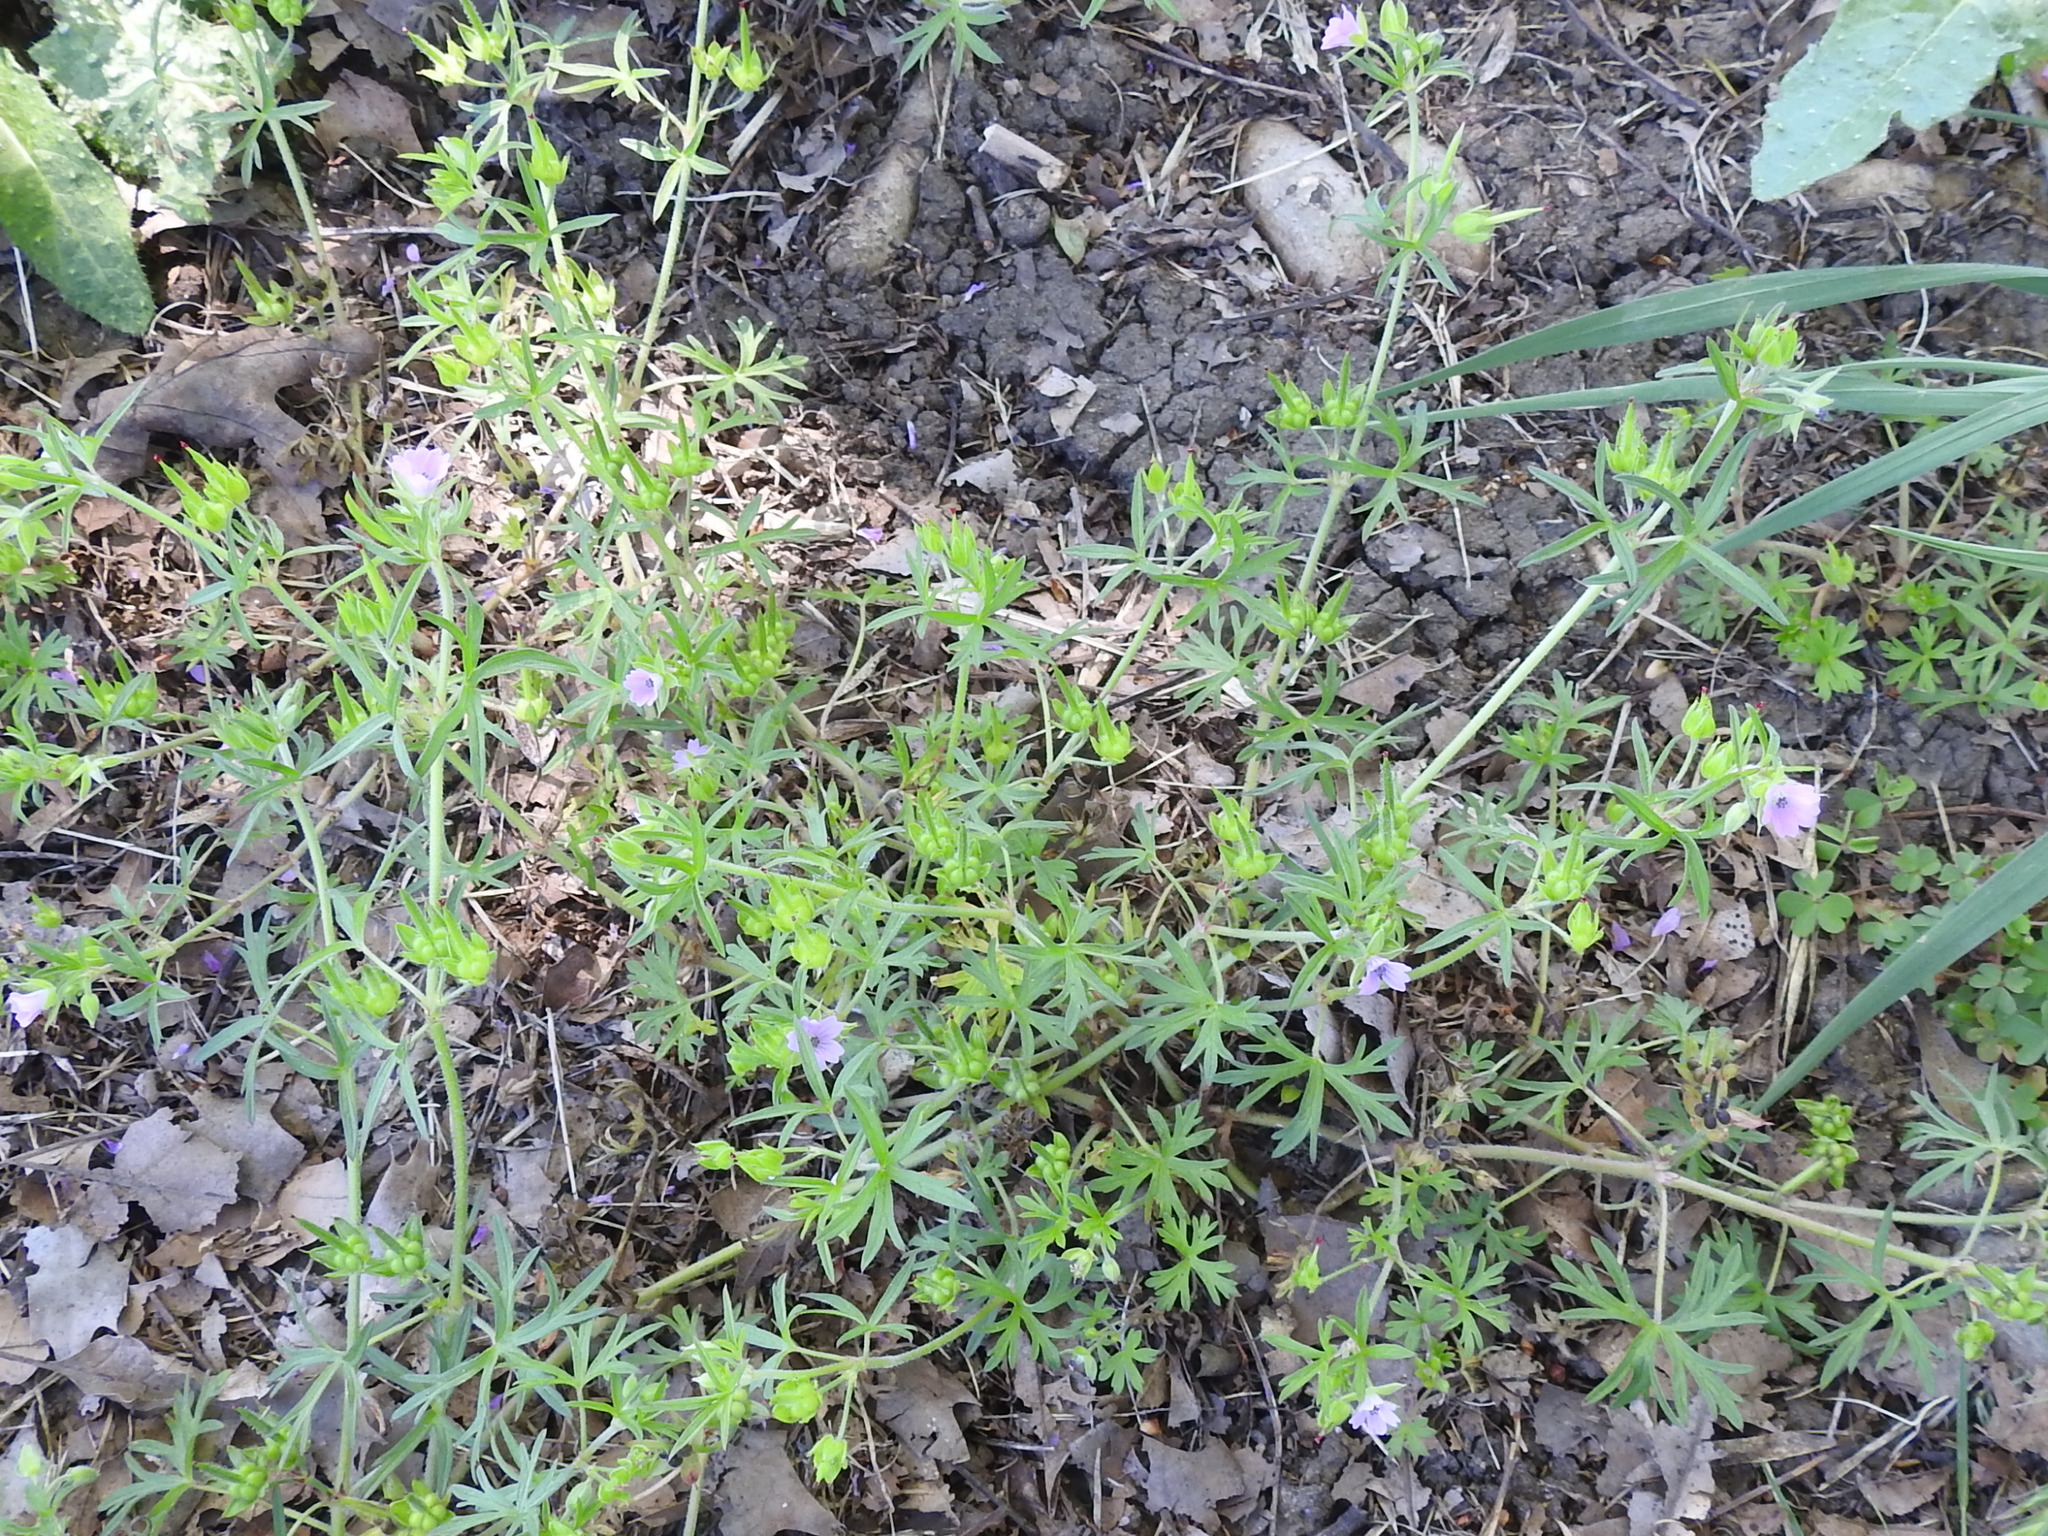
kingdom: Plantae
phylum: Tracheophyta
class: Magnoliopsida
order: Geraniales
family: Geraniaceae
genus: Geranium
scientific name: Geranium dissectum
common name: Cut-leaved crane's-bill
